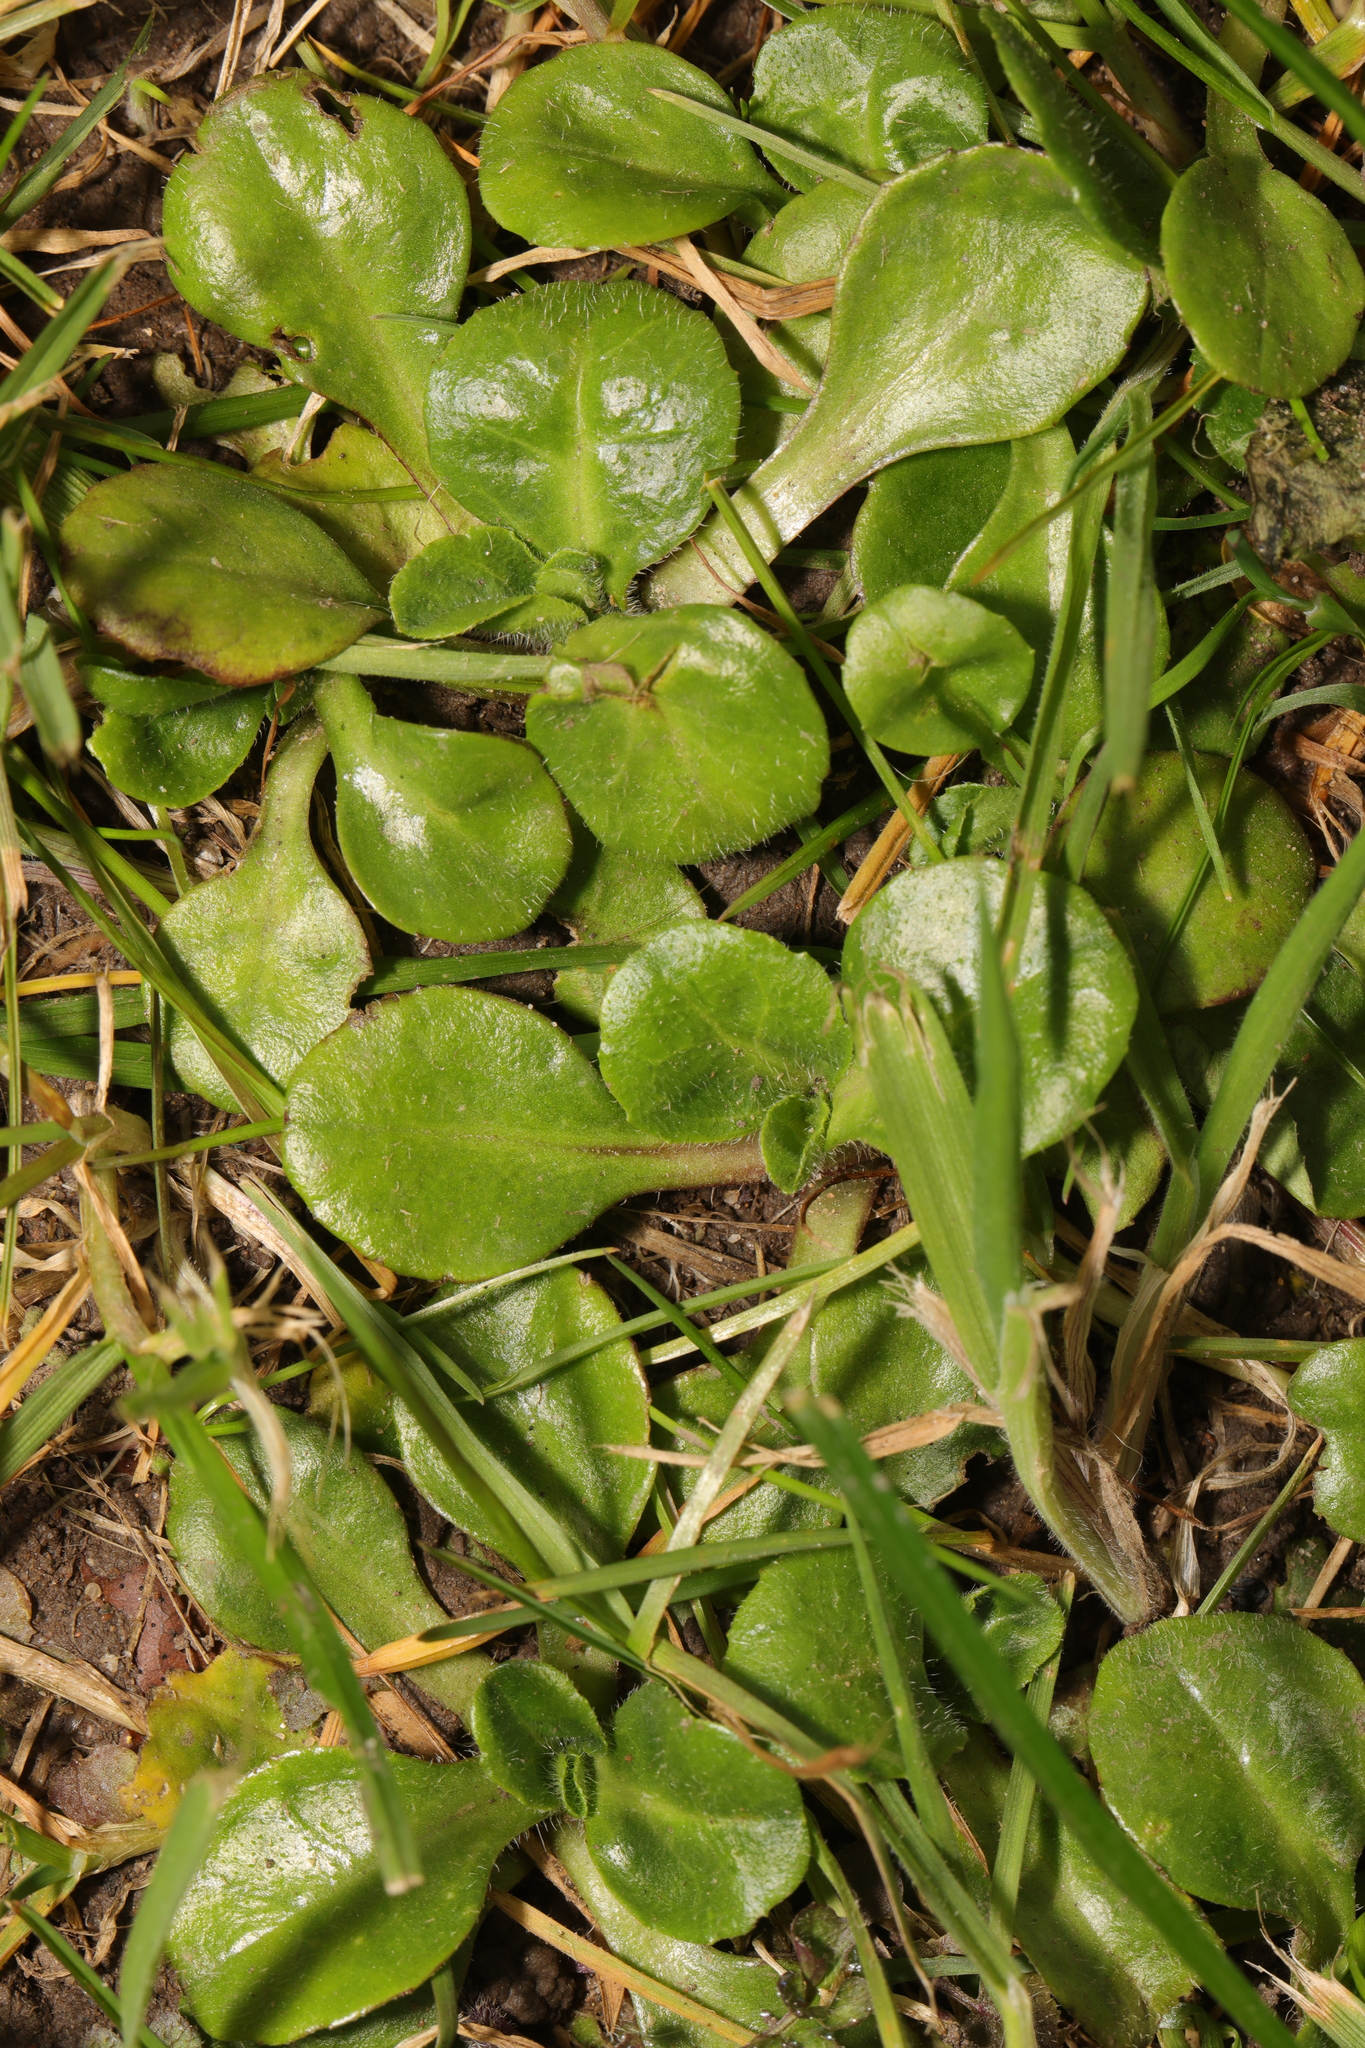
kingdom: Plantae
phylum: Tracheophyta
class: Magnoliopsida
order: Asterales
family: Asteraceae
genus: Bellis
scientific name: Bellis perennis
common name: Lawndaisy
